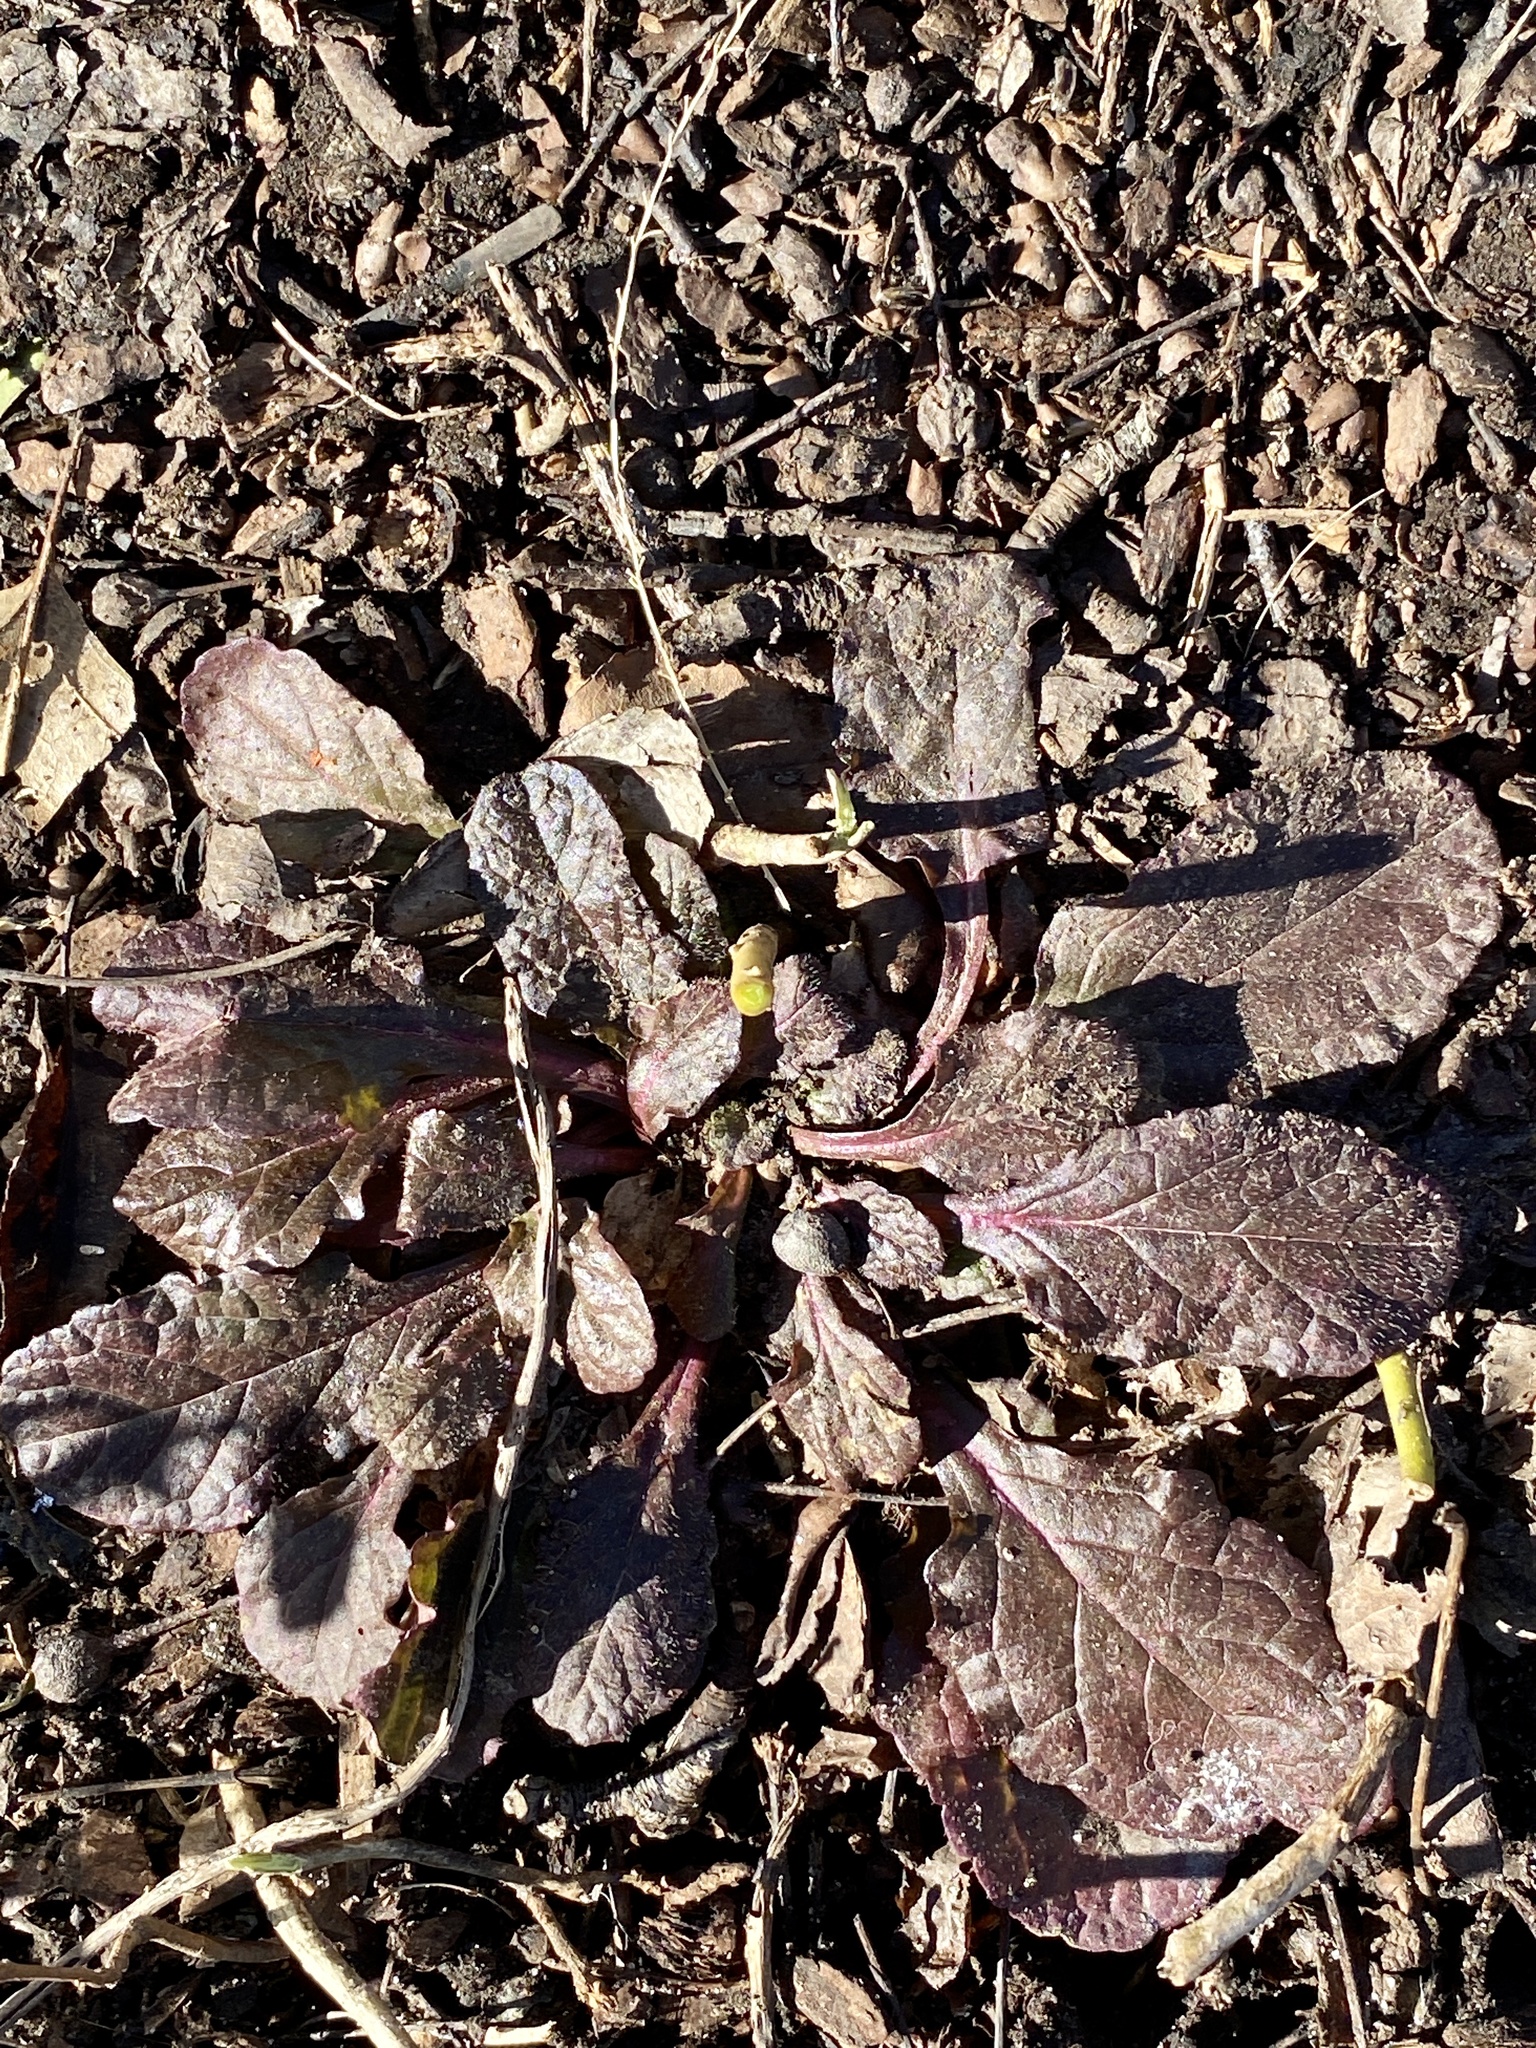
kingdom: Plantae
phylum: Tracheophyta
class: Magnoliopsida
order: Lamiales
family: Lamiaceae
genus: Ajuga
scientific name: Ajuga reptans
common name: Bugle
